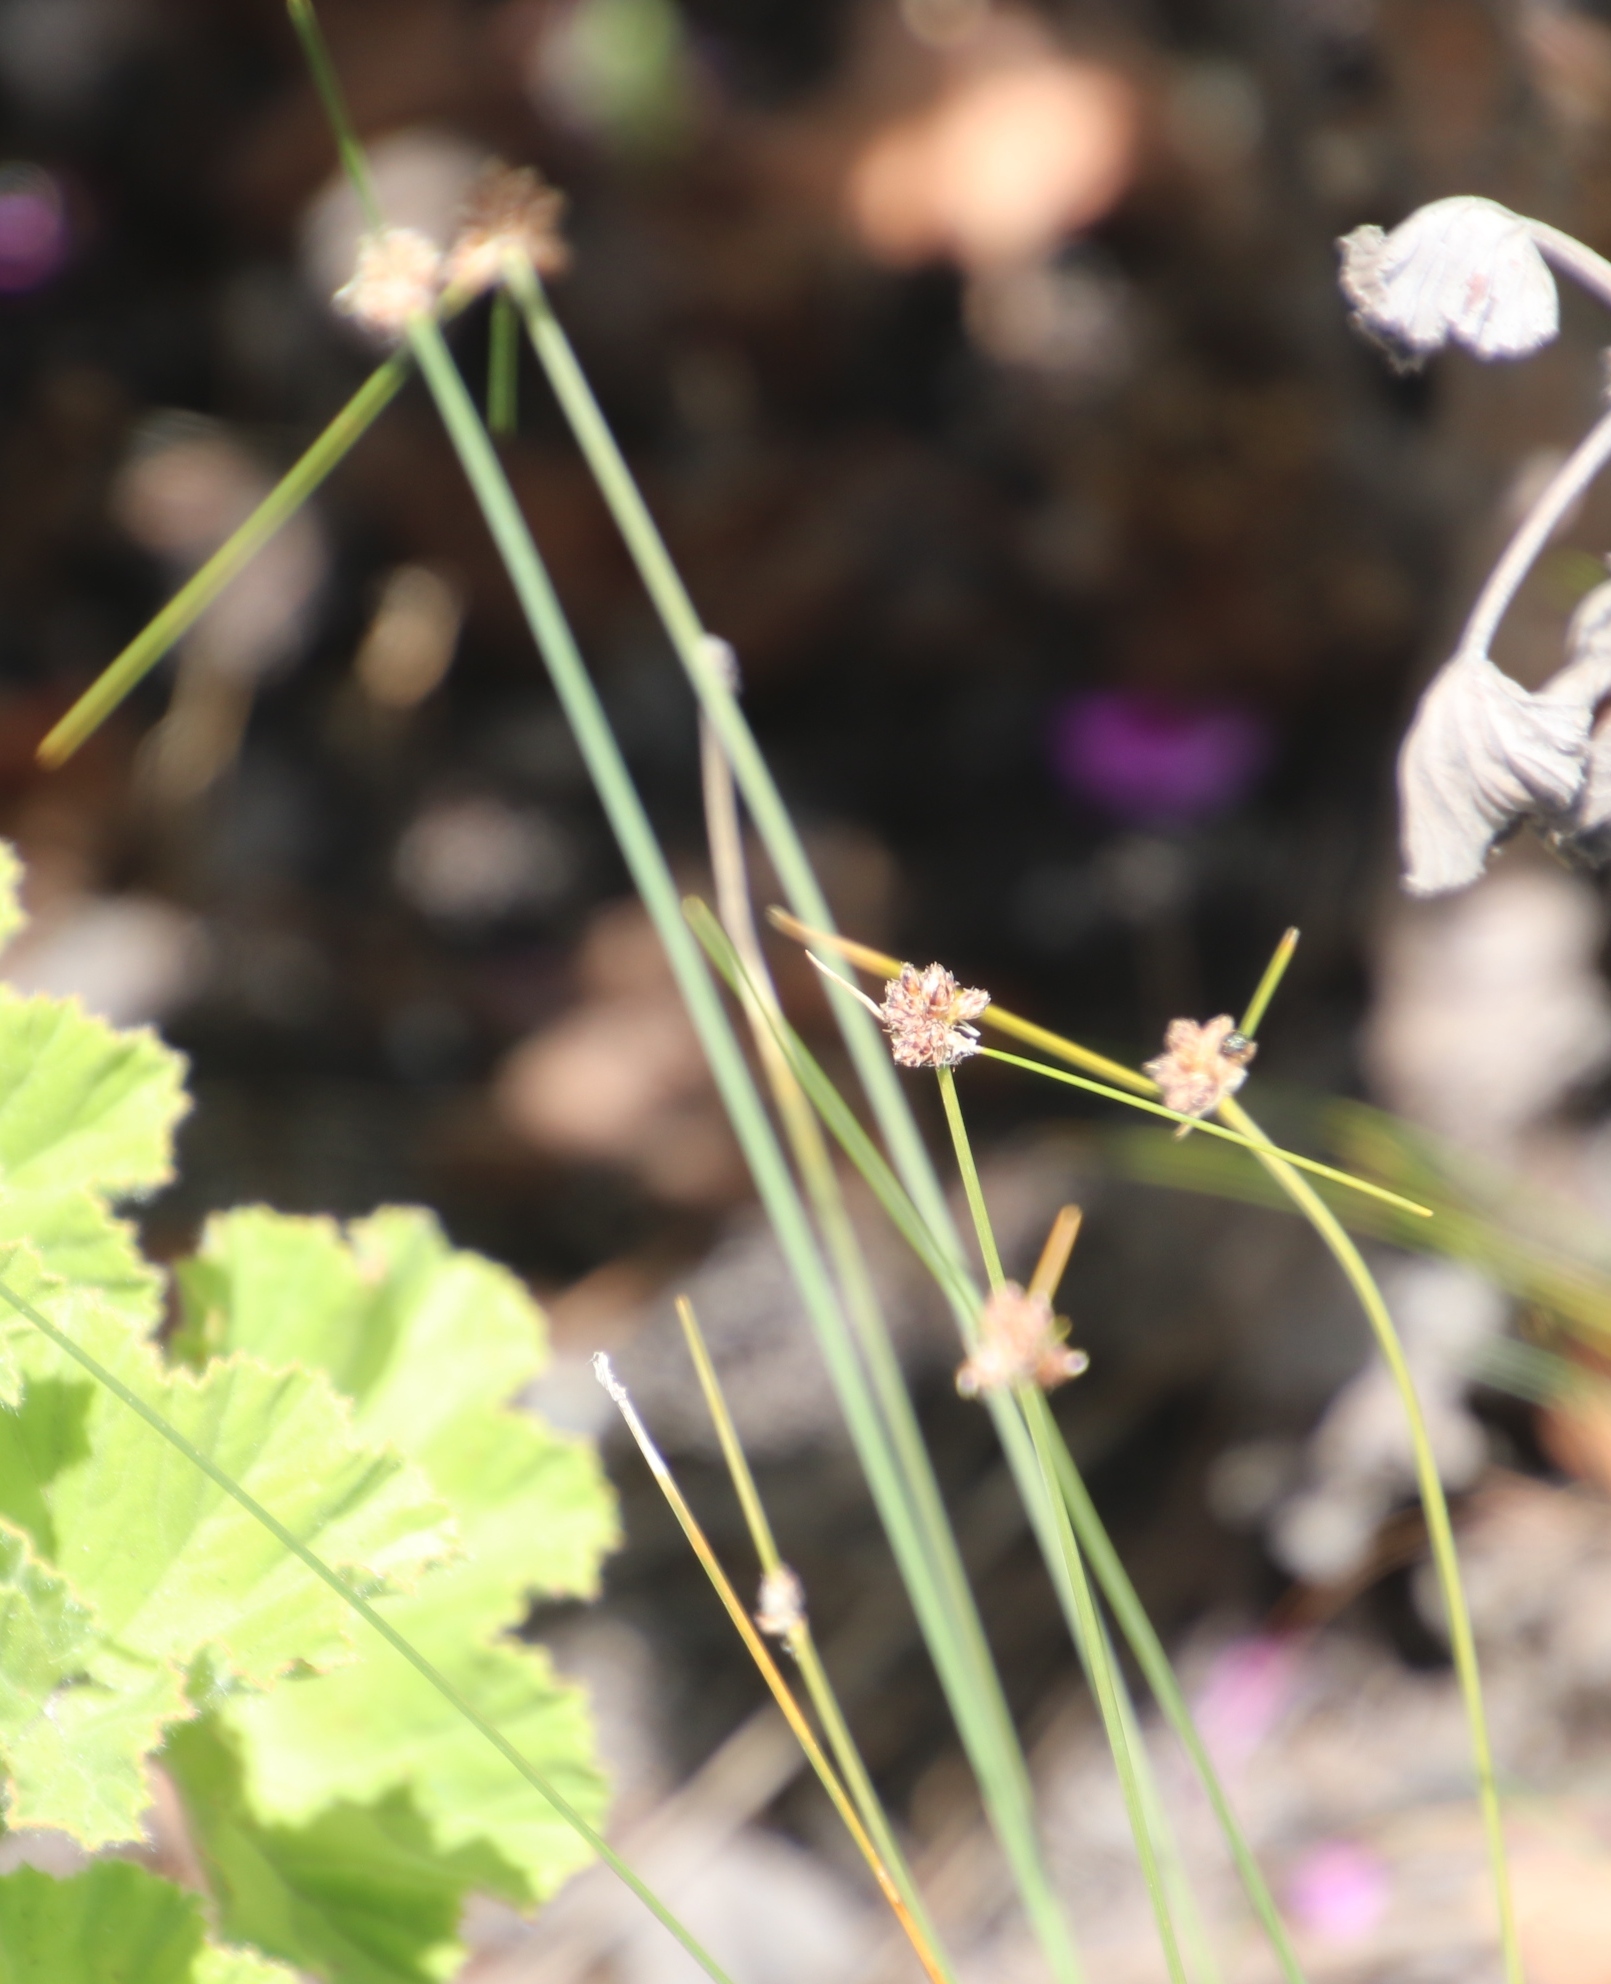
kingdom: Plantae
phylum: Tracheophyta
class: Liliopsida
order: Poales
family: Cyperaceae
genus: Ficinia
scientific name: Ficinia paradoxa
